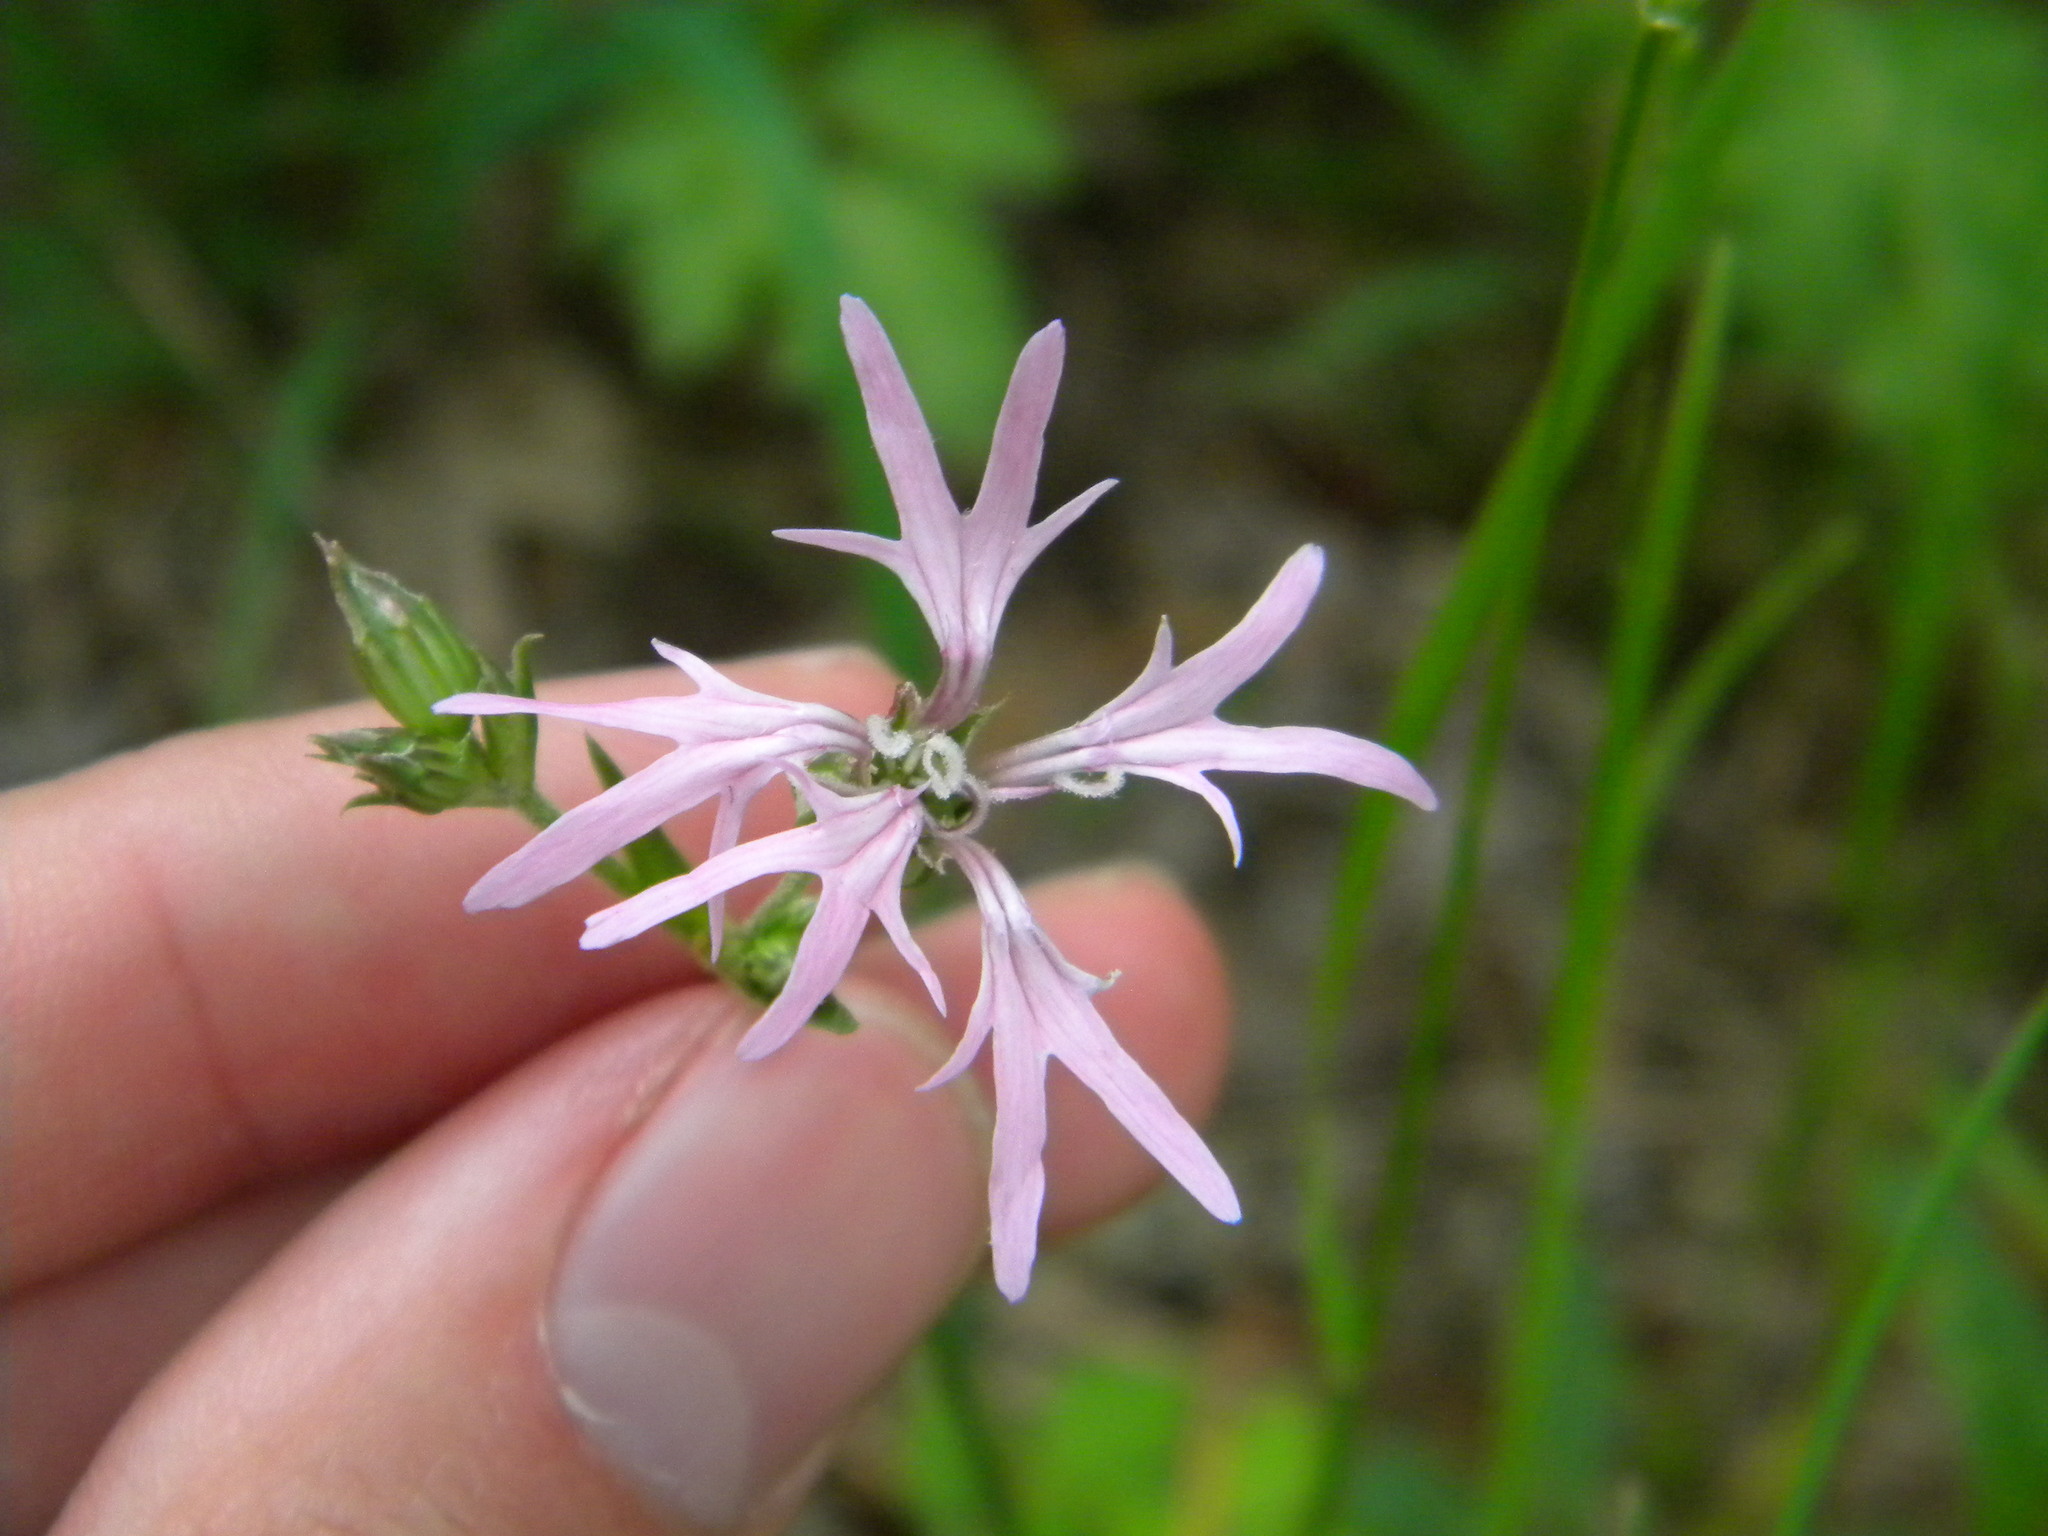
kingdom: Plantae
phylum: Tracheophyta
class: Magnoliopsida
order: Caryophyllales
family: Caryophyllaceae
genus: Silene
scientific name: Silene flos-cuculi
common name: Ragged-robin
